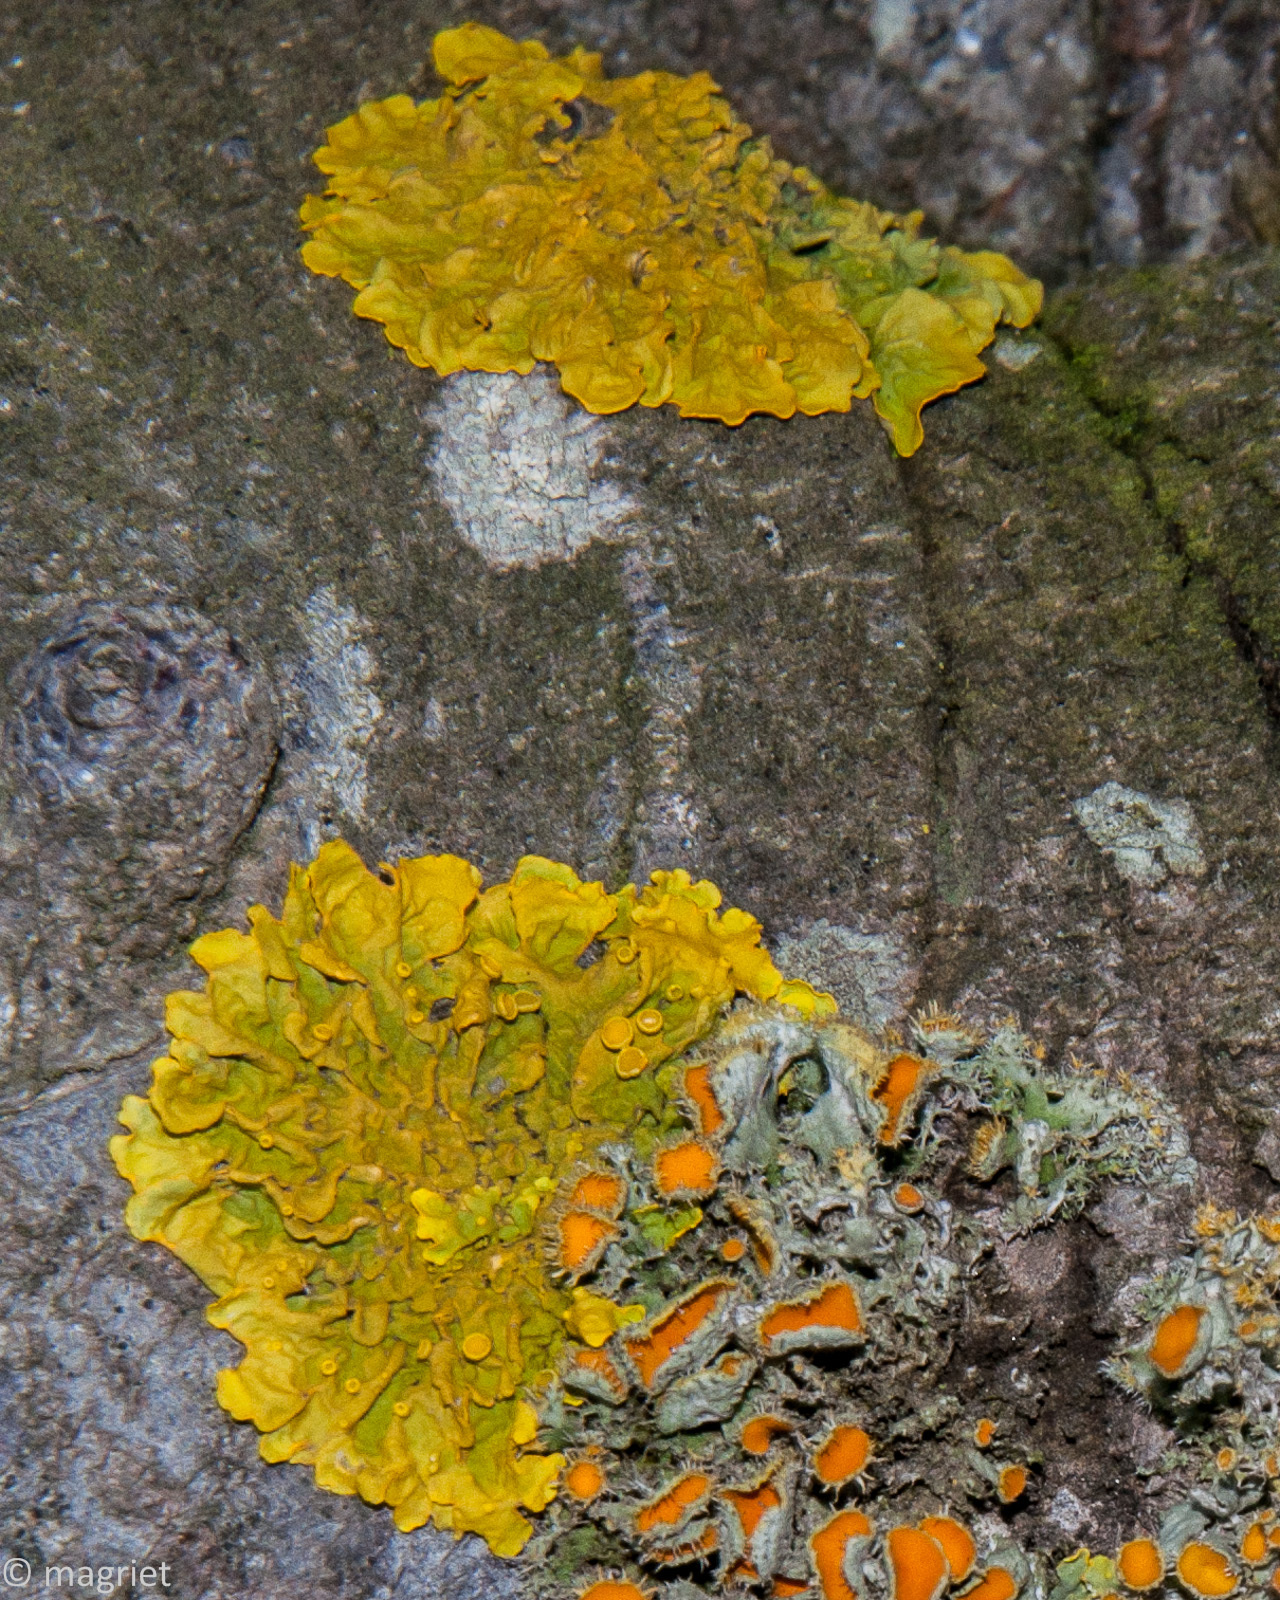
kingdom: Fungi
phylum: Ascomycota
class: Lecanoromycetes
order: Teloschistales
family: Teloschistaceae
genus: Xanthoria
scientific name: Xanthoria parietina
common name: Common orange lichen
